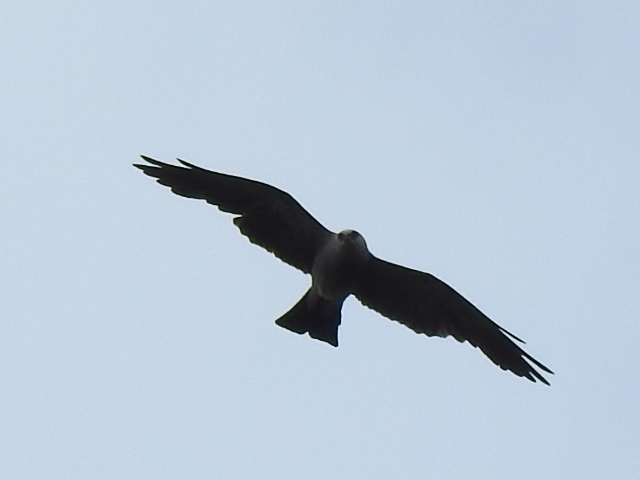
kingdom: Animalia
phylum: Chordata
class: Aves
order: Accipitriformes
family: Accipitridae
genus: Ictinia
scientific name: Ictinia mississippiensis
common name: Mississippi kite
